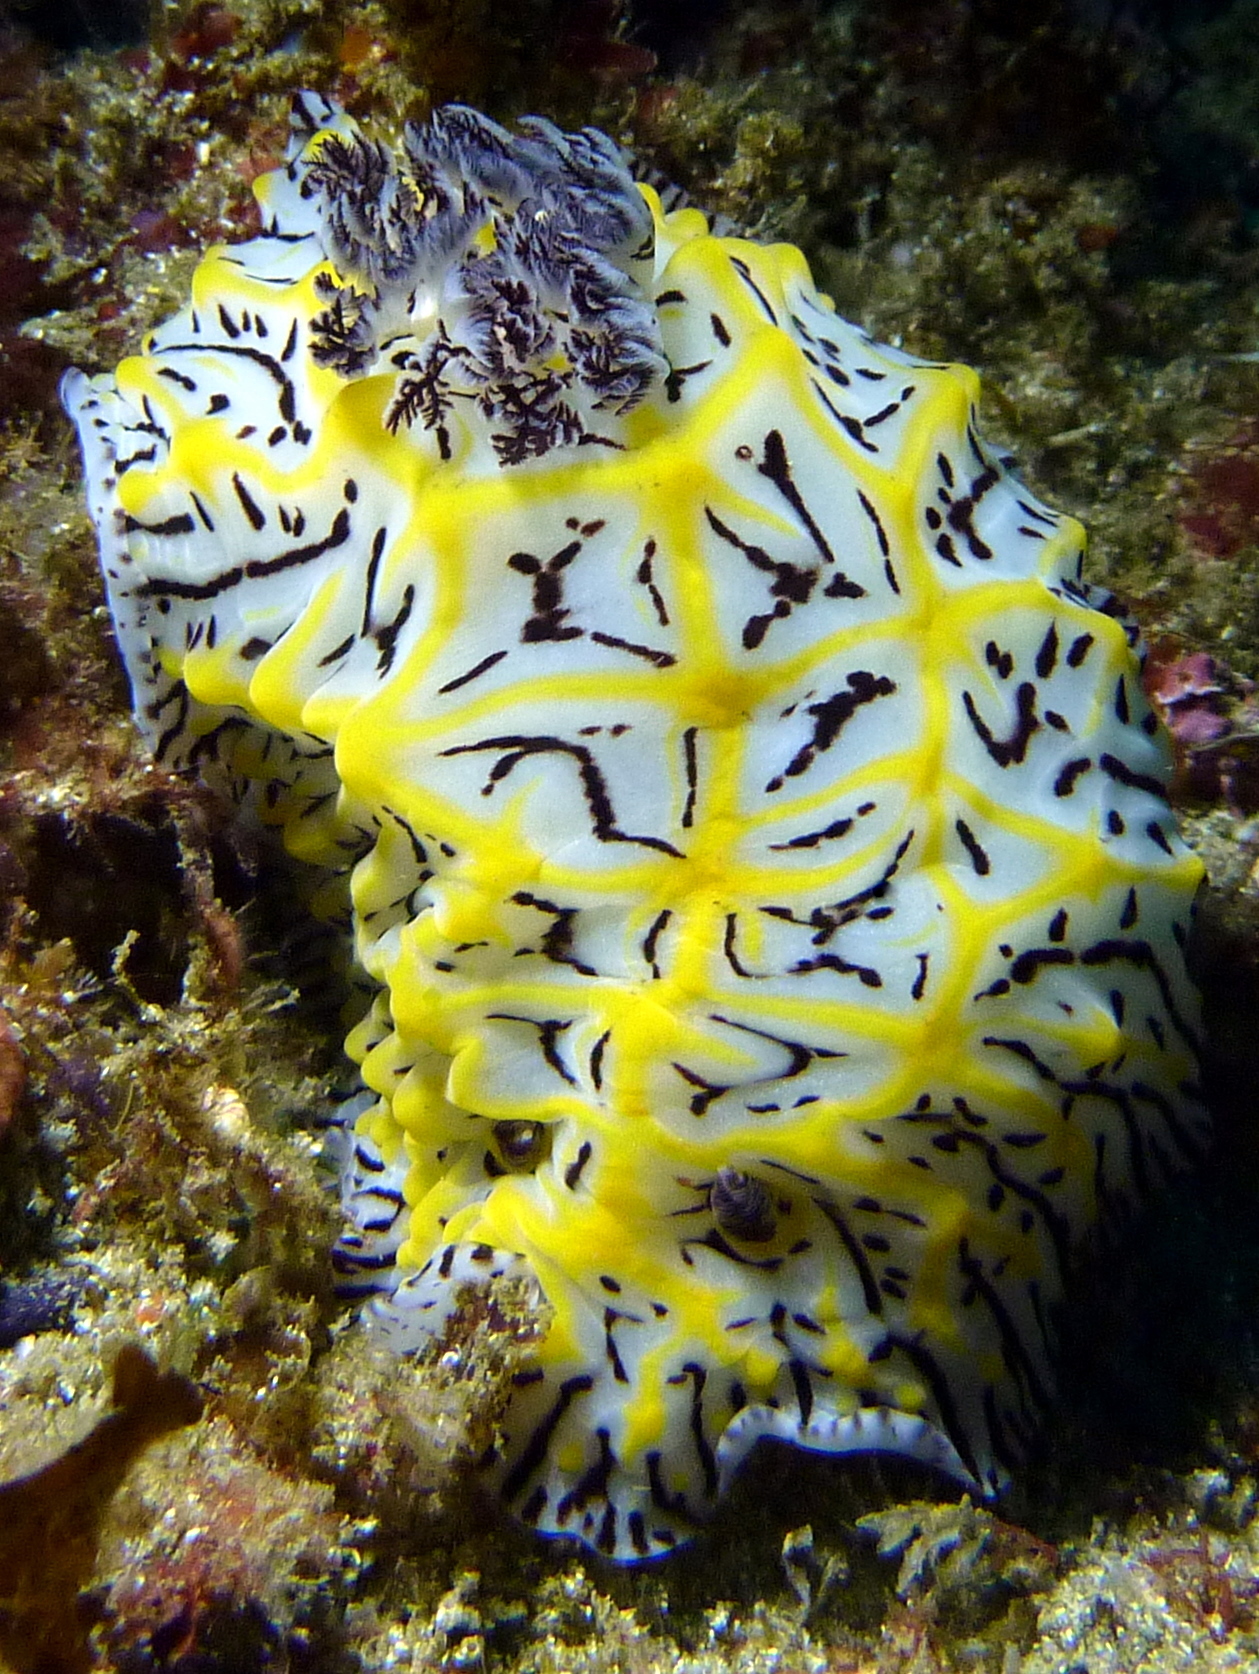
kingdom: Animalia
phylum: Mollusca
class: Gastropoda
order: Nudibranchia
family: Discodorididae
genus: Halgerda
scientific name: Halgerda willeyi
